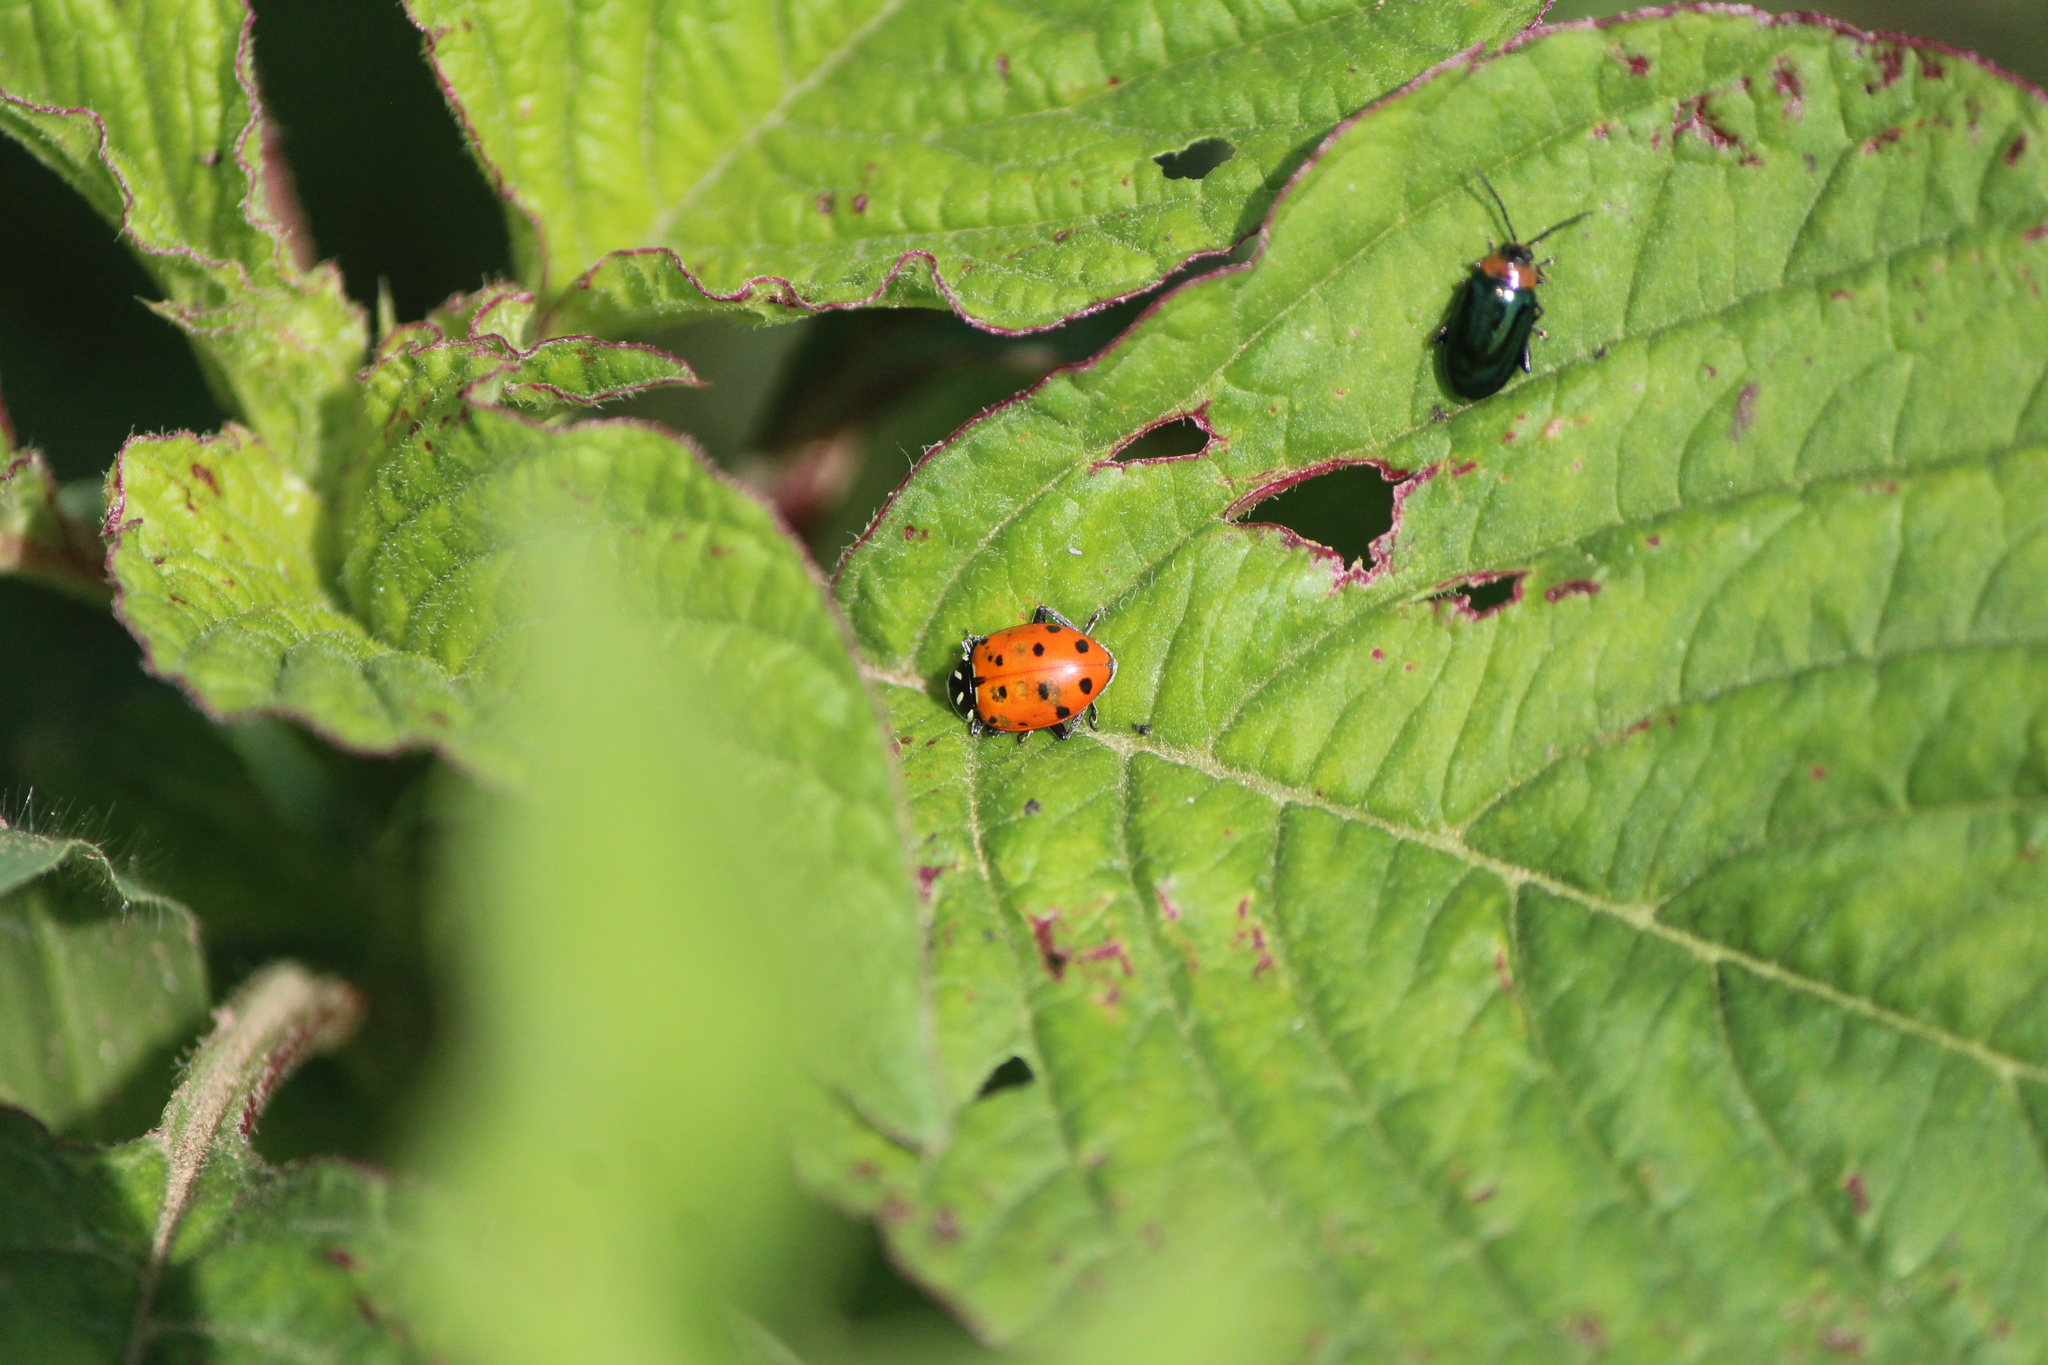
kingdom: Animalia
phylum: Arthropoda
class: Insecta
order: Coleoptera
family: Coccinellidae
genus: Hippodamia
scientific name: Hippodamia convergens
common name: Convergent lady beetle
